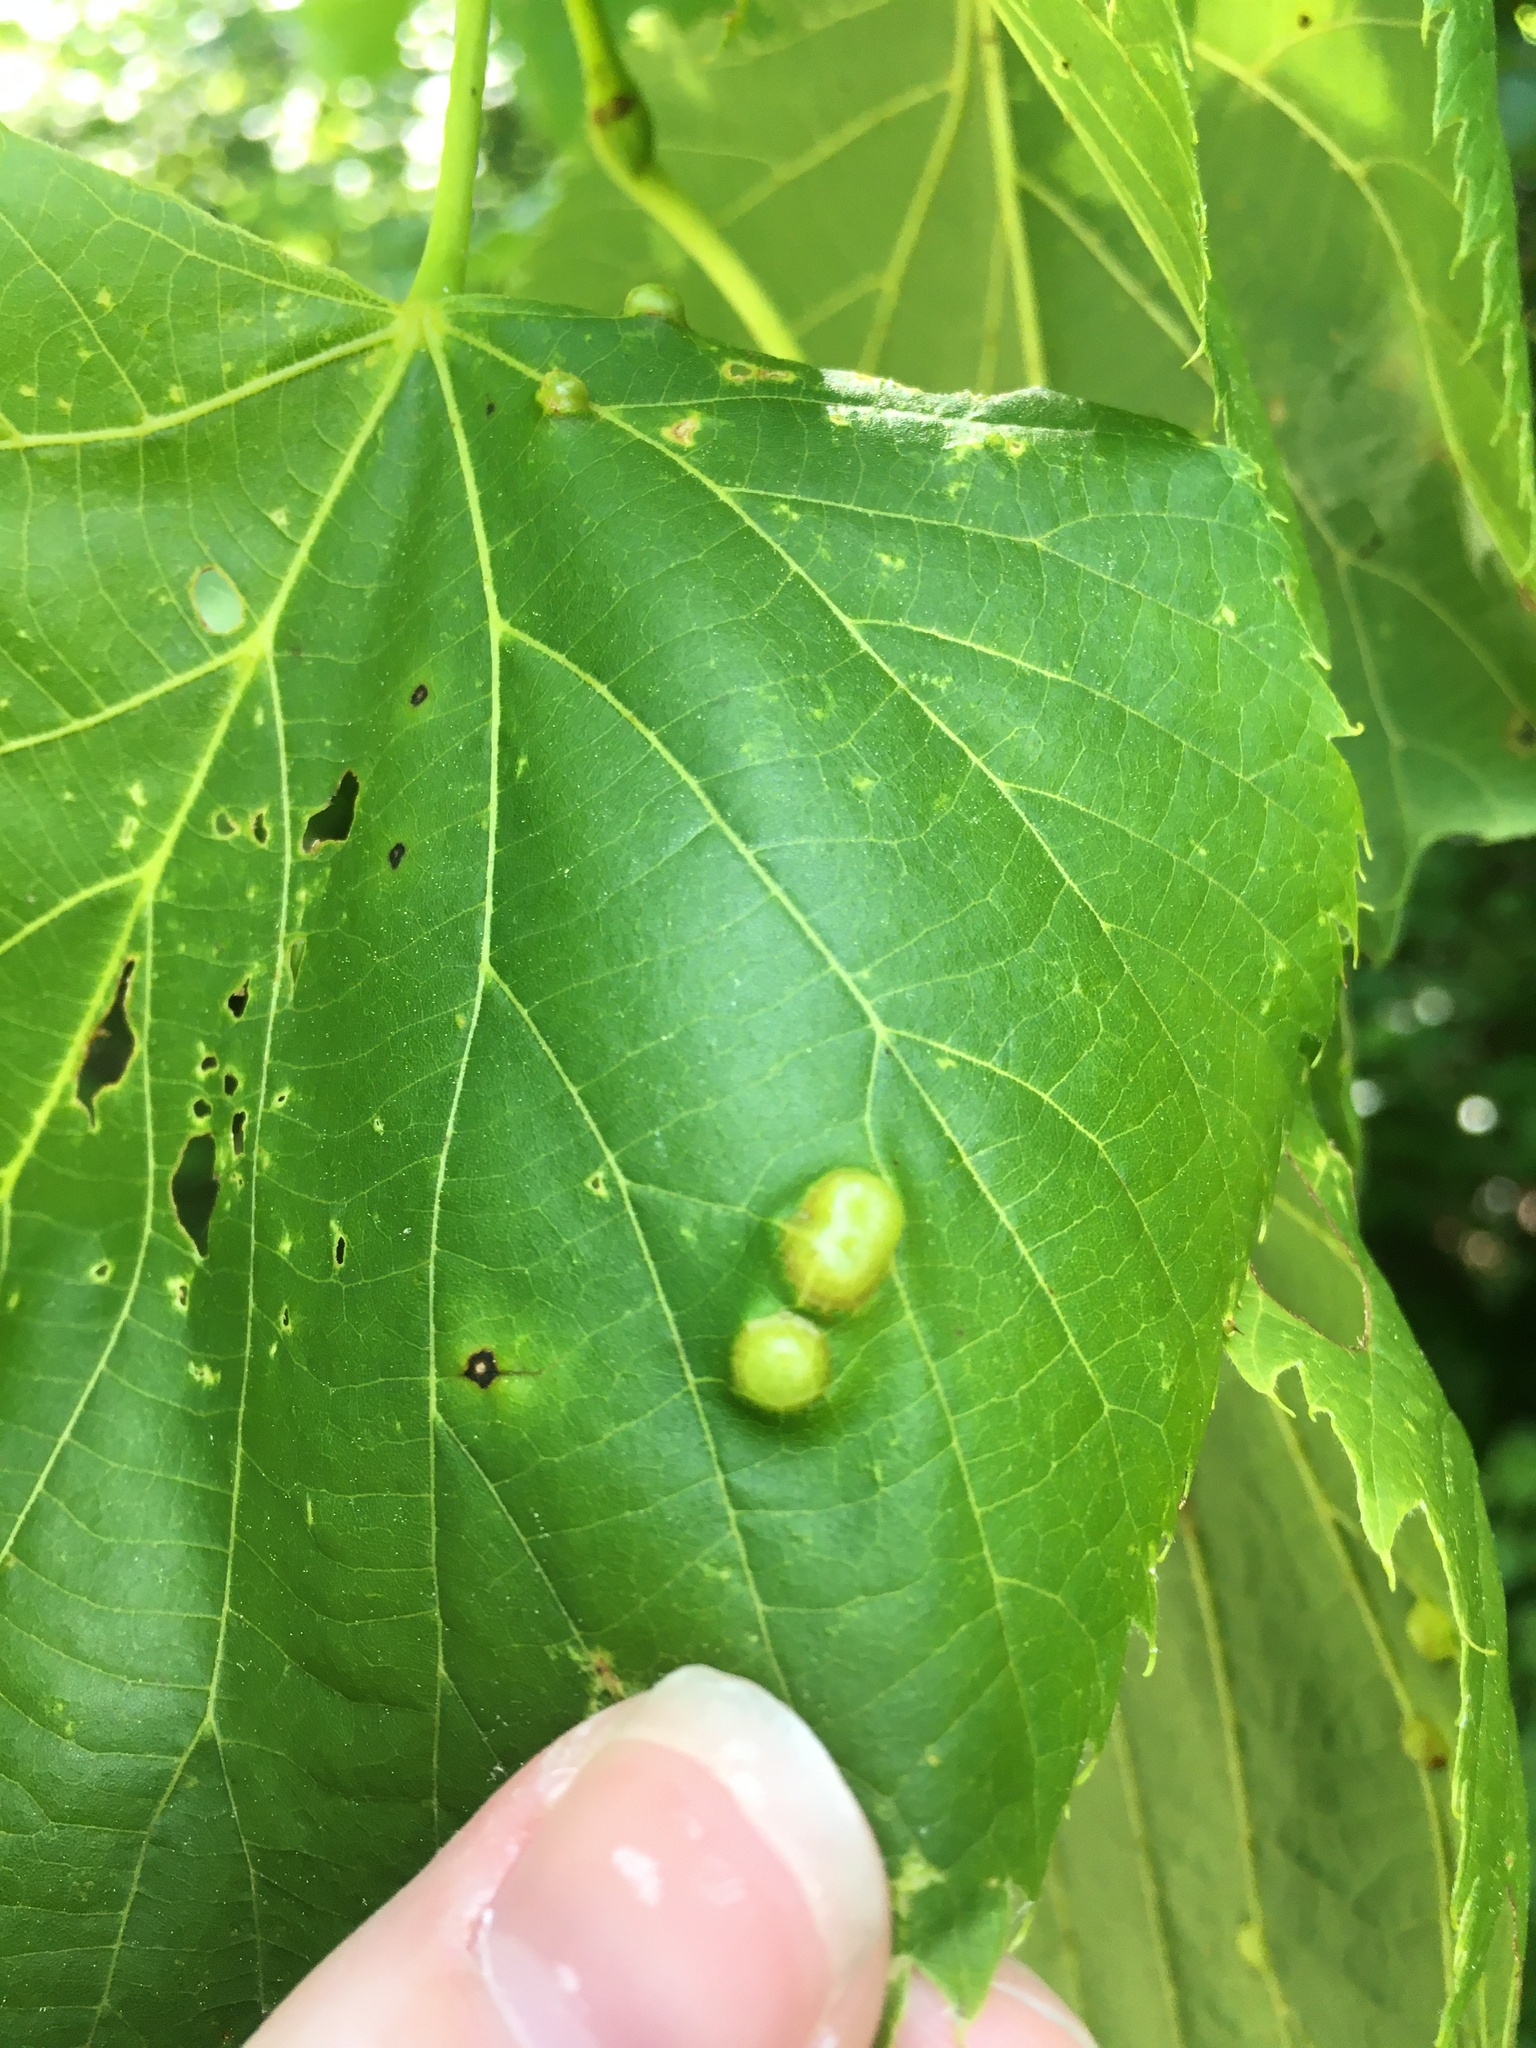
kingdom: Animalia
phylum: Arthropoda
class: Insecta
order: Diptera
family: Cecidomyiidae
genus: Contarinia
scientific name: Contarinia verrucicola
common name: Linden wart gall midge
